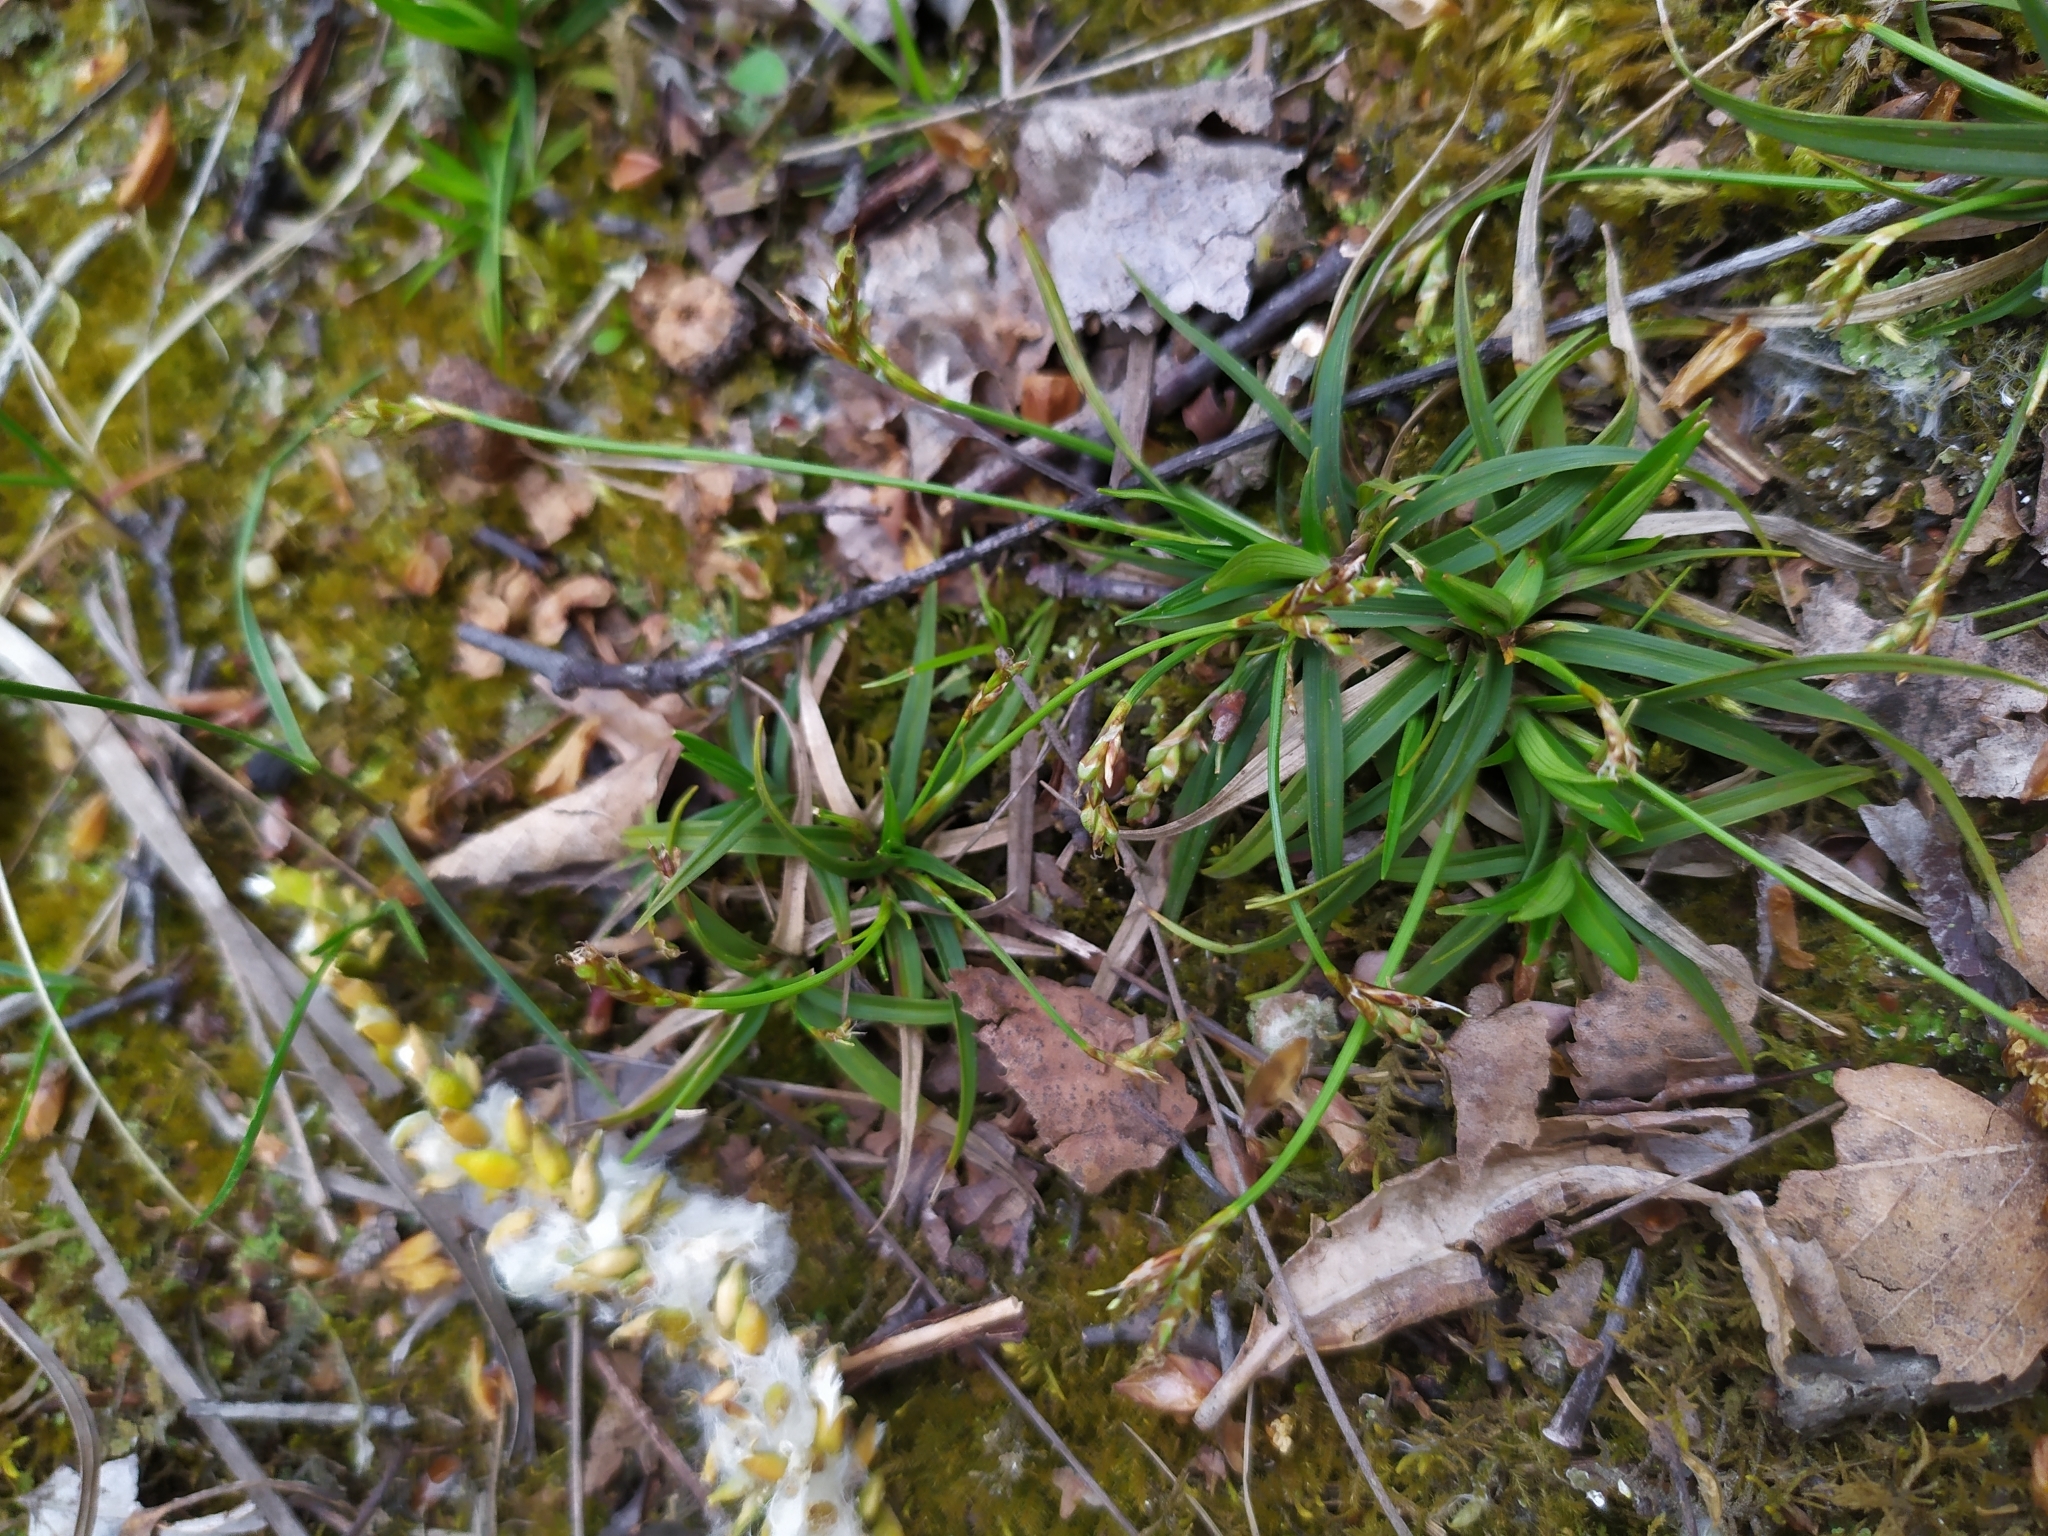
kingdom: Plantae
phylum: Tracheophyta
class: Liliopsida
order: Poales
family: Cyperaceae
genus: Carex
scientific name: Carex digitata
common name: Fingered sedge
